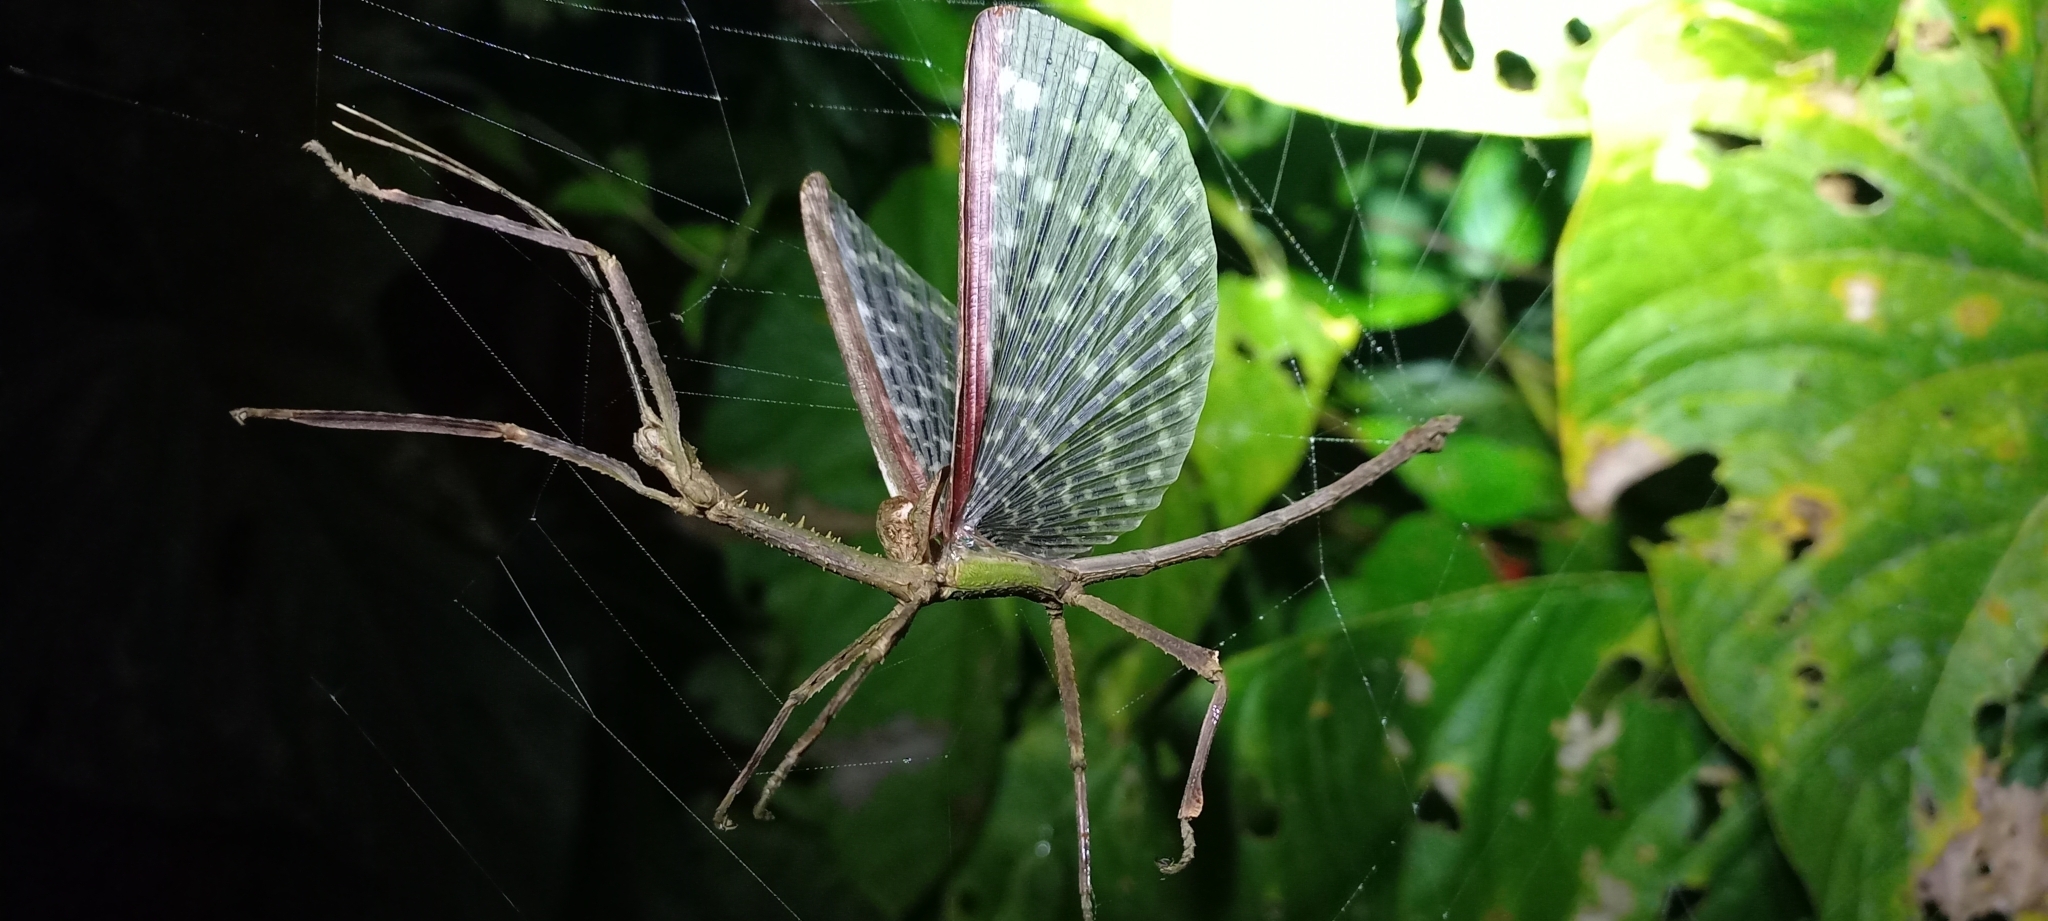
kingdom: Animalia
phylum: Arthropoda
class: Insecta
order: Phasmida
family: Phasmatidae
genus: Pterinoxylus
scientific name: Pterinoxylus spinulosus
